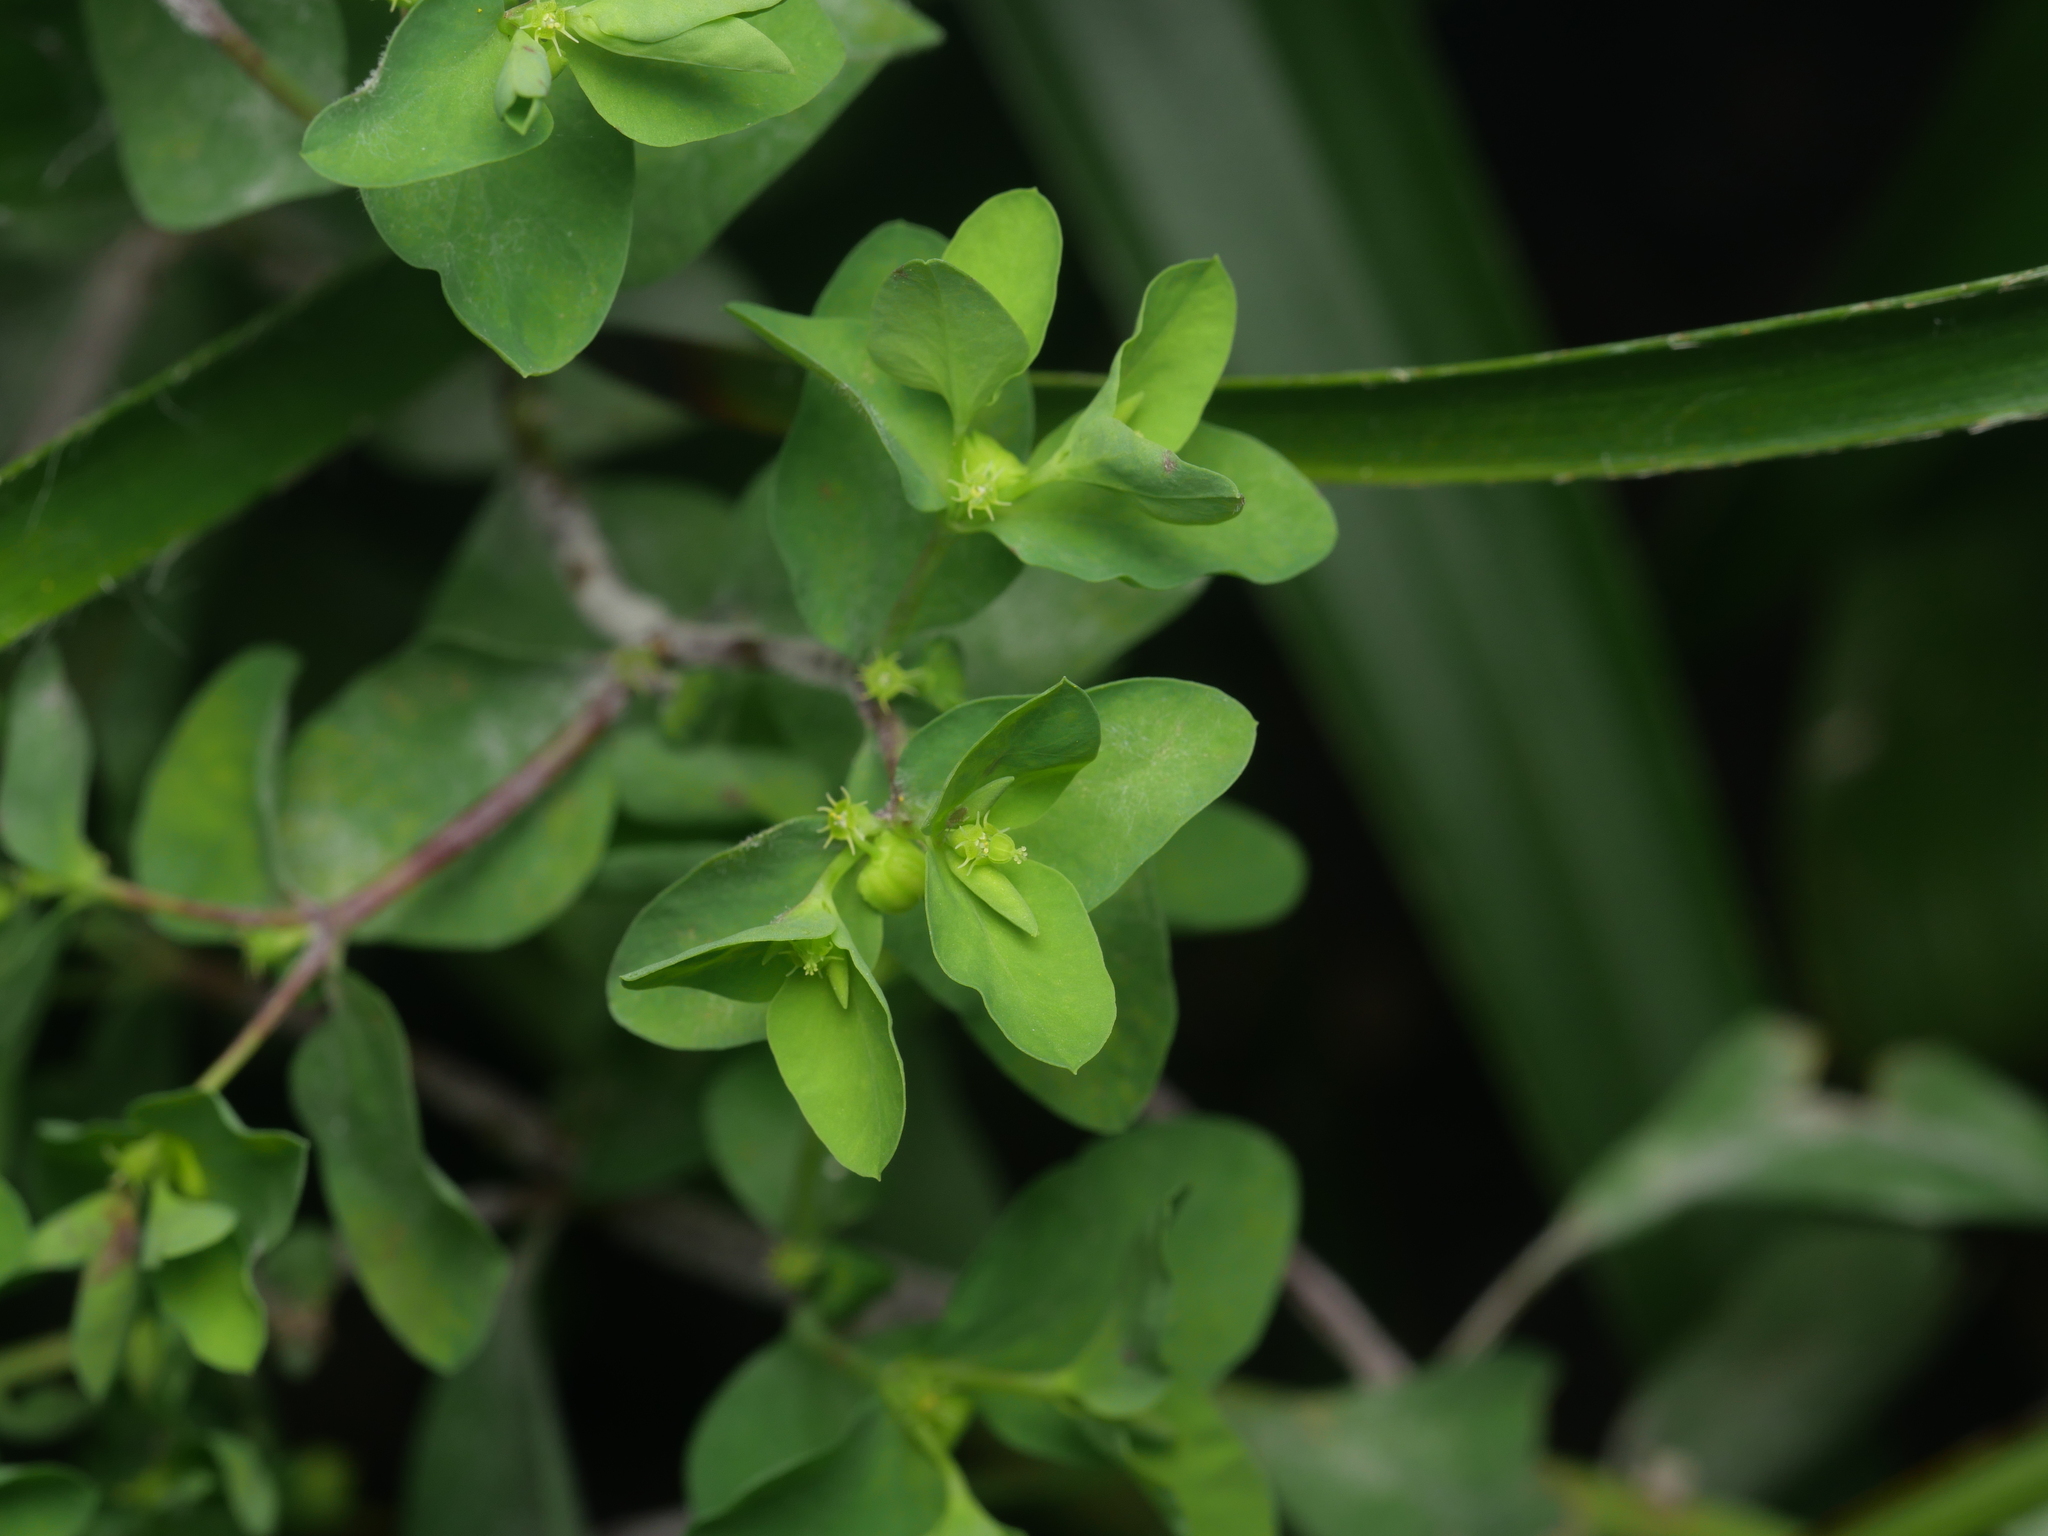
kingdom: Plantae
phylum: Tracheophyta
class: Magnoliopsida
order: Malpighiales
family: Euphorbiaceae
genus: Euphorbia
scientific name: Euphorbia peplus
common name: Petty spurge
